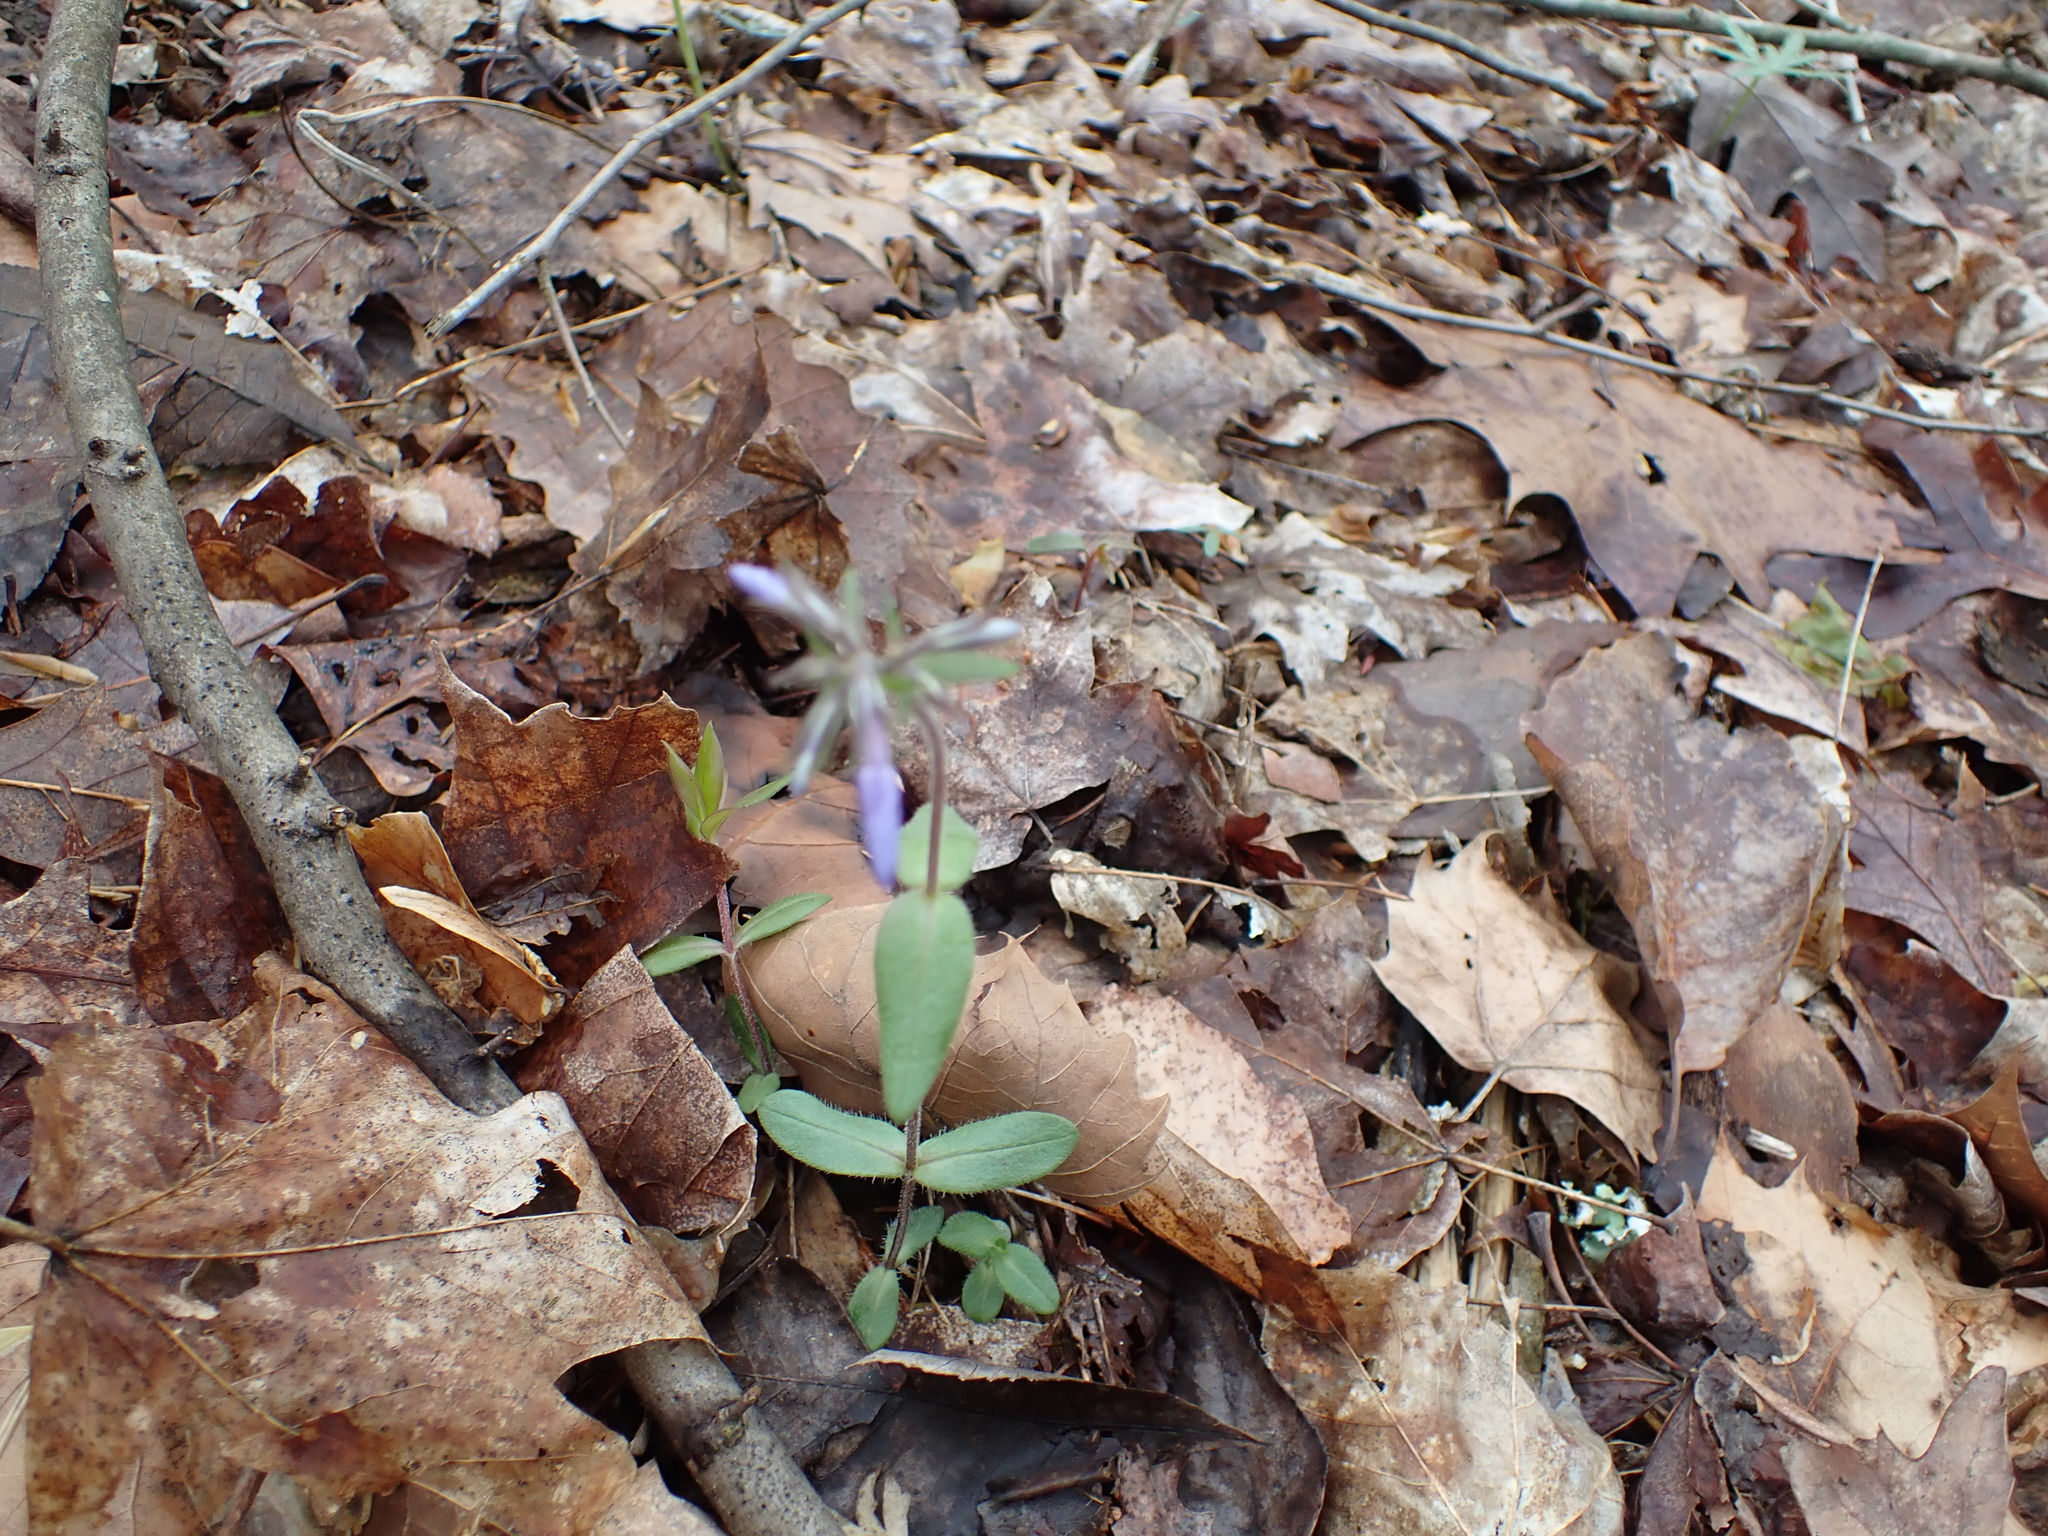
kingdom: Plantae
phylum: Tracheophyta
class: Magnoliopsida
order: Ericales
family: Polemoniaceae
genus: Phlox
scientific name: Phlox divaricata
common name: Blue phlox
